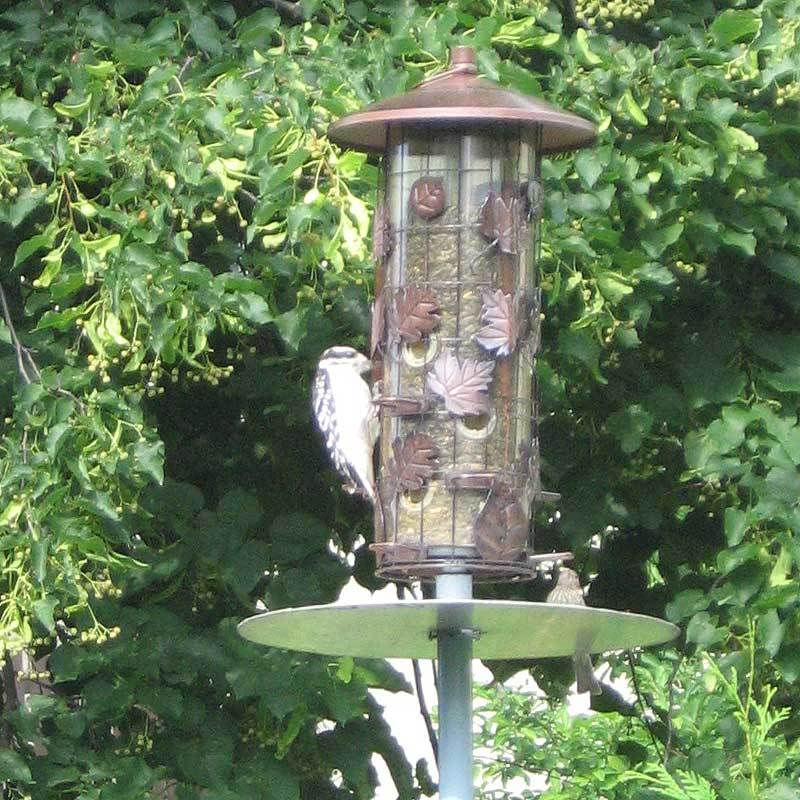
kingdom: Animalia
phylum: Chordata
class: Aves
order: Piciformes
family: Picidae
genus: Leuconotopicus
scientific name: Leuconotopicus villosus
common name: Hairy woodpecker
